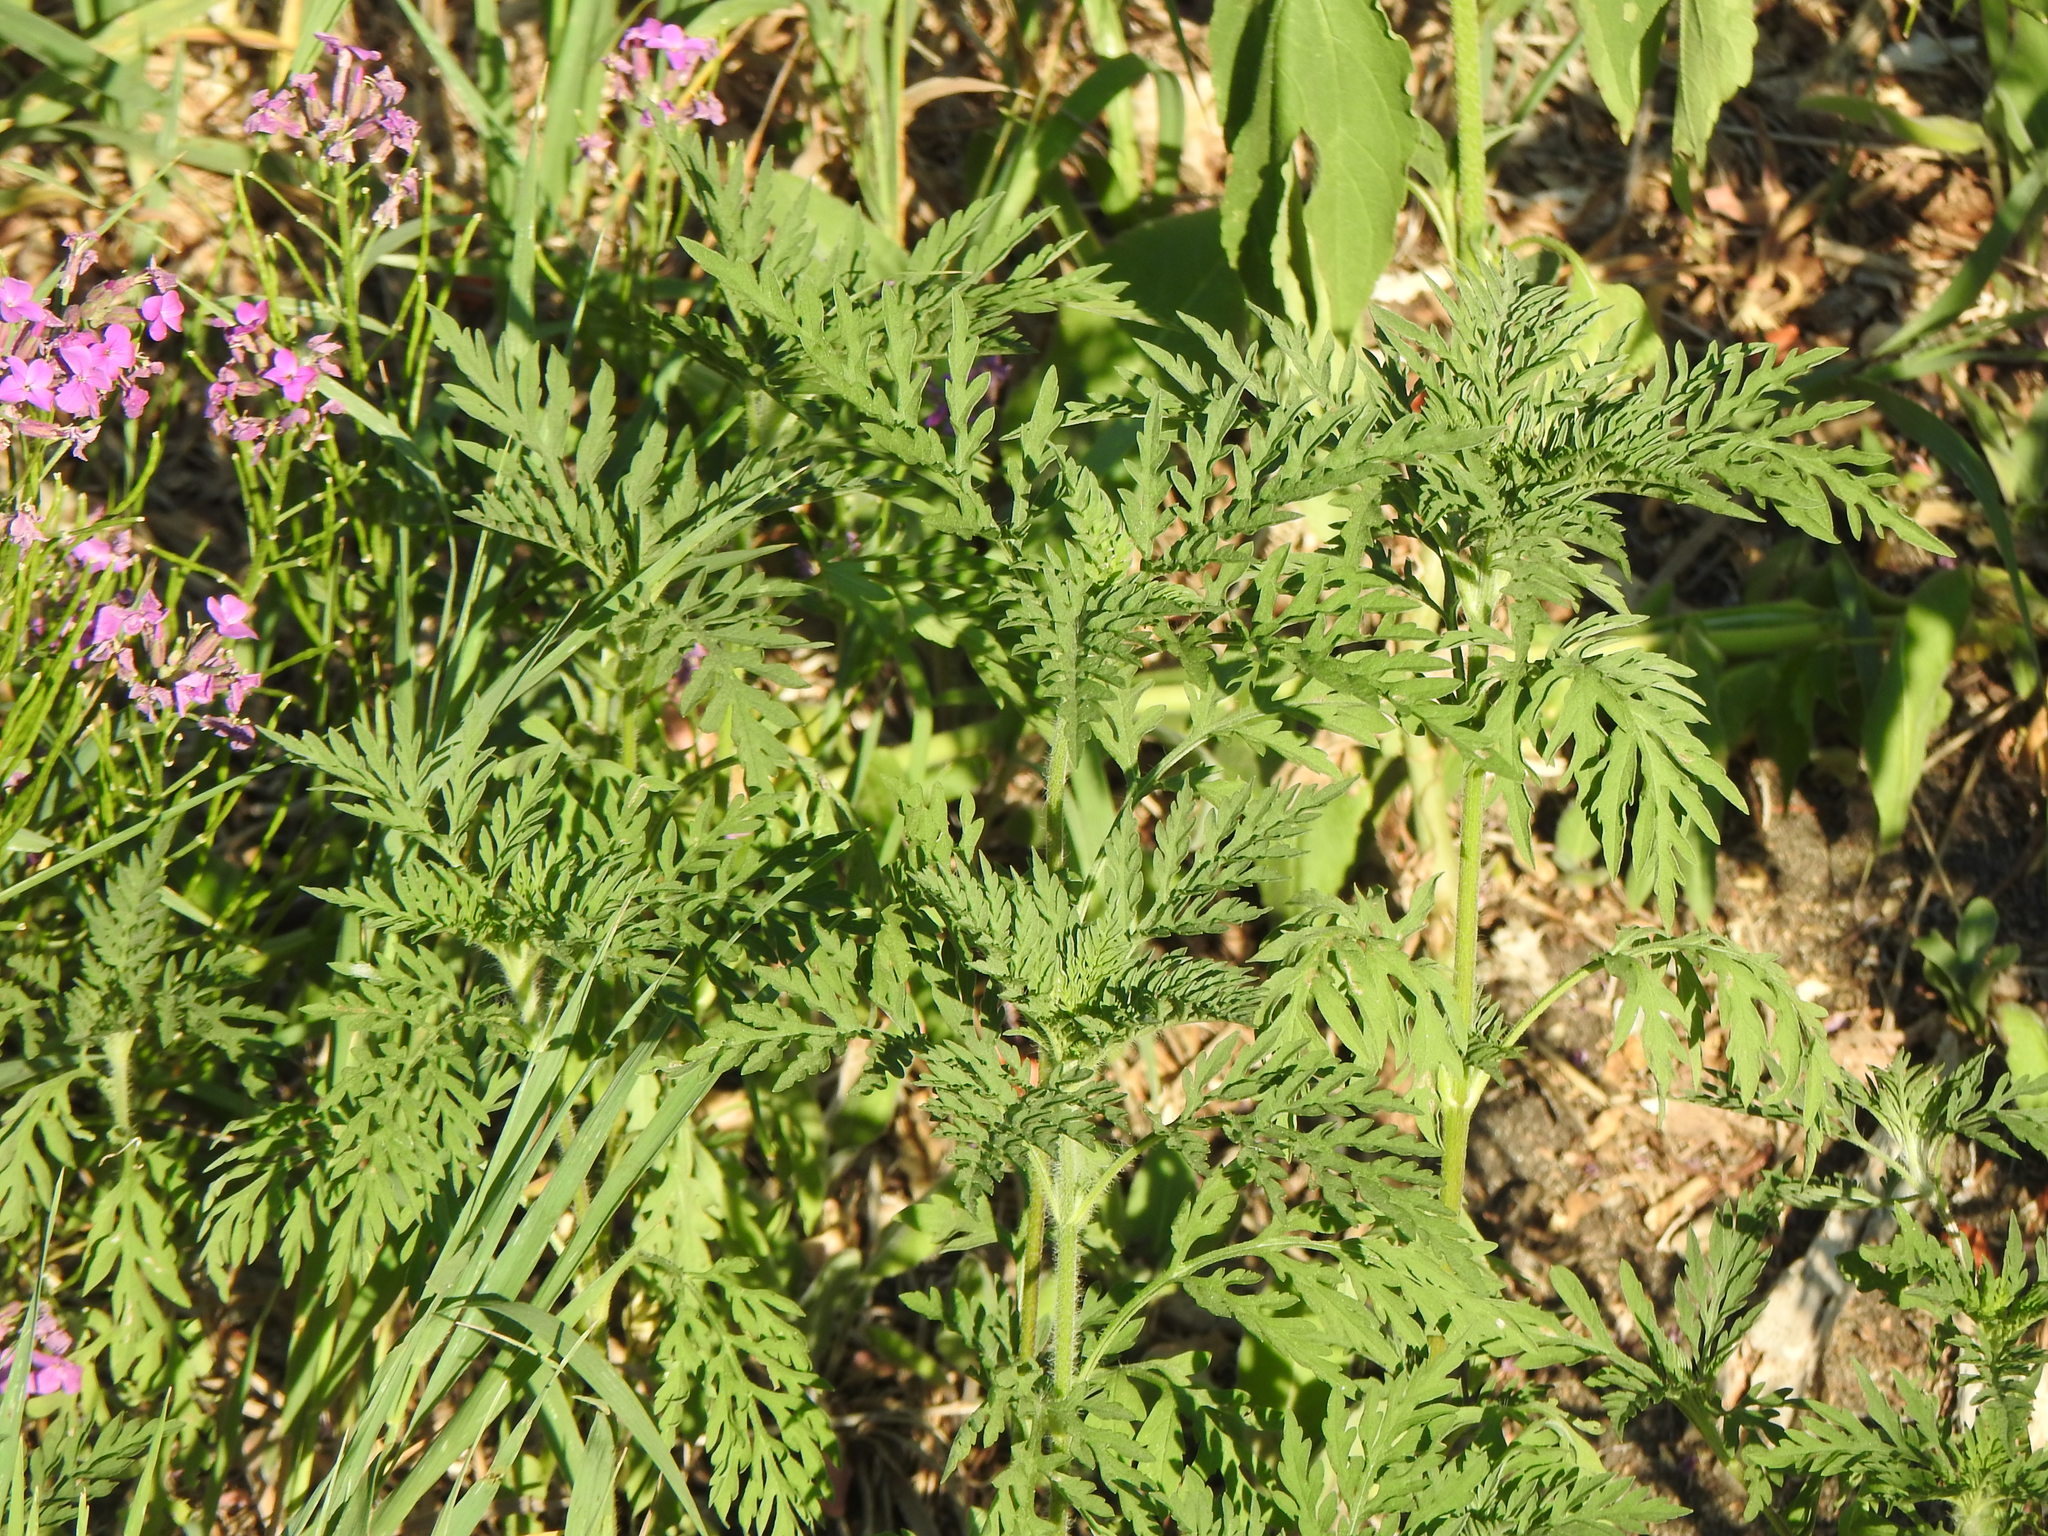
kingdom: Plantae
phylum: Tracheophyta
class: Magnoliopsida
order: Asterales
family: Asteraceae
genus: Ambrosia
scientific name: Ambrosia artemisiifolia
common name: Annual ragweed
